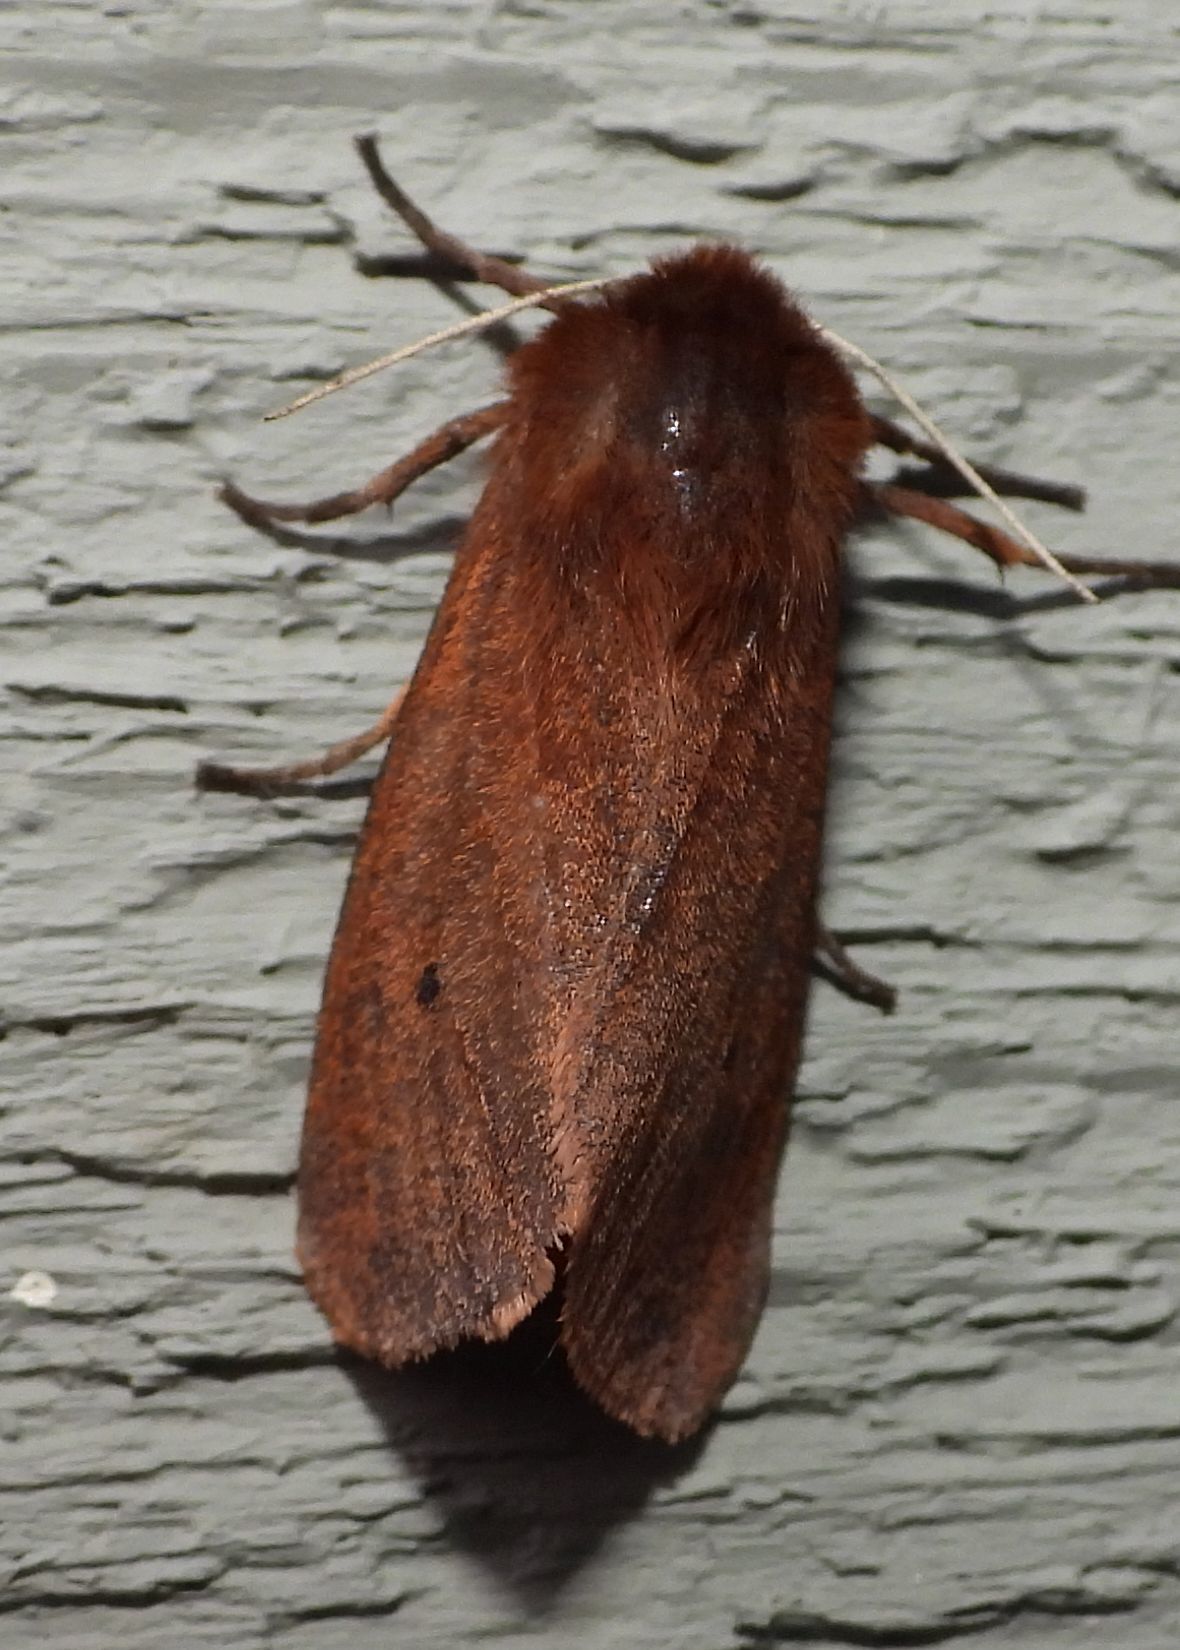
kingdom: Animalia
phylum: Arthropoda
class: Insecta
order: Lepidoptera
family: Erebidae
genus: Phragmatobia
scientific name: Phragmatobia fuliginosa
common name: Ruby tiger
